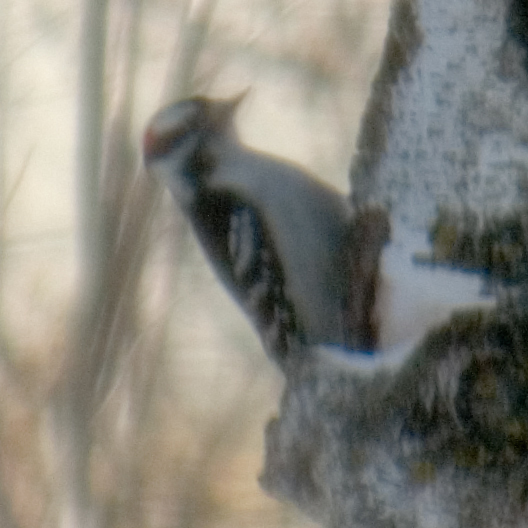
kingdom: Animalia
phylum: Chordata
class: Aves
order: Piciformes
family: Picidae
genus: Dryobates
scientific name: Dryobates pubescens
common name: Downy woodpecker
